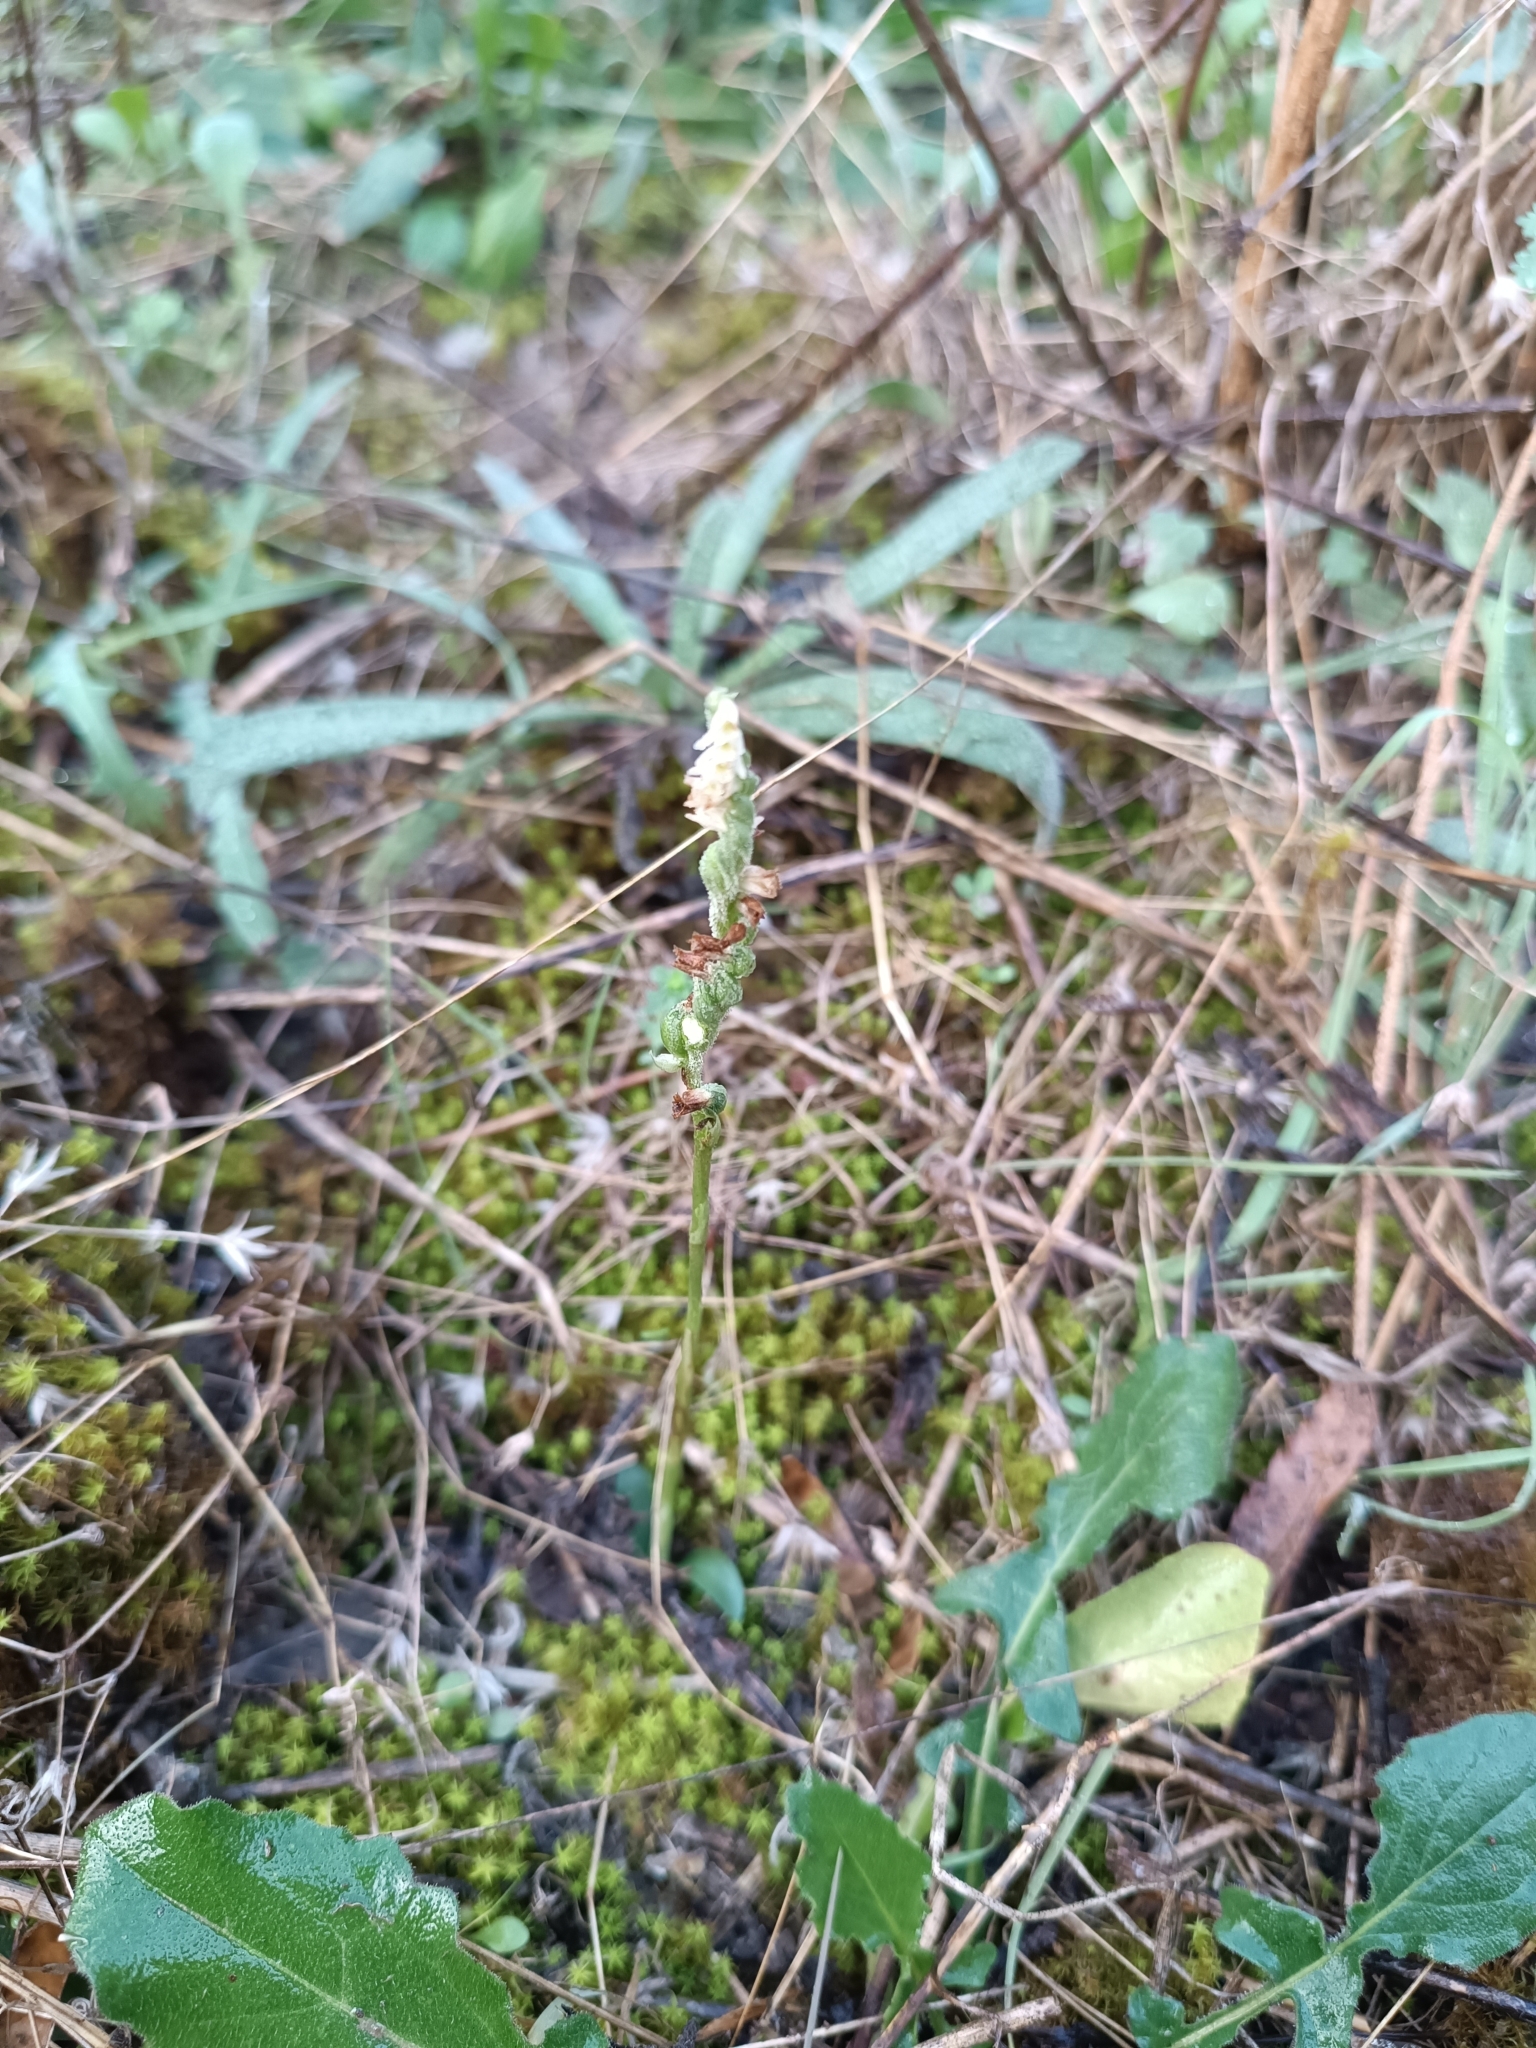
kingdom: Plantae
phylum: Tracheophyta
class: Liliopsida
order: Asparagales
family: Orchidaceae
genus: Spiranthes
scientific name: Spiranthes spiralis
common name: Autumn lady's-tresses
